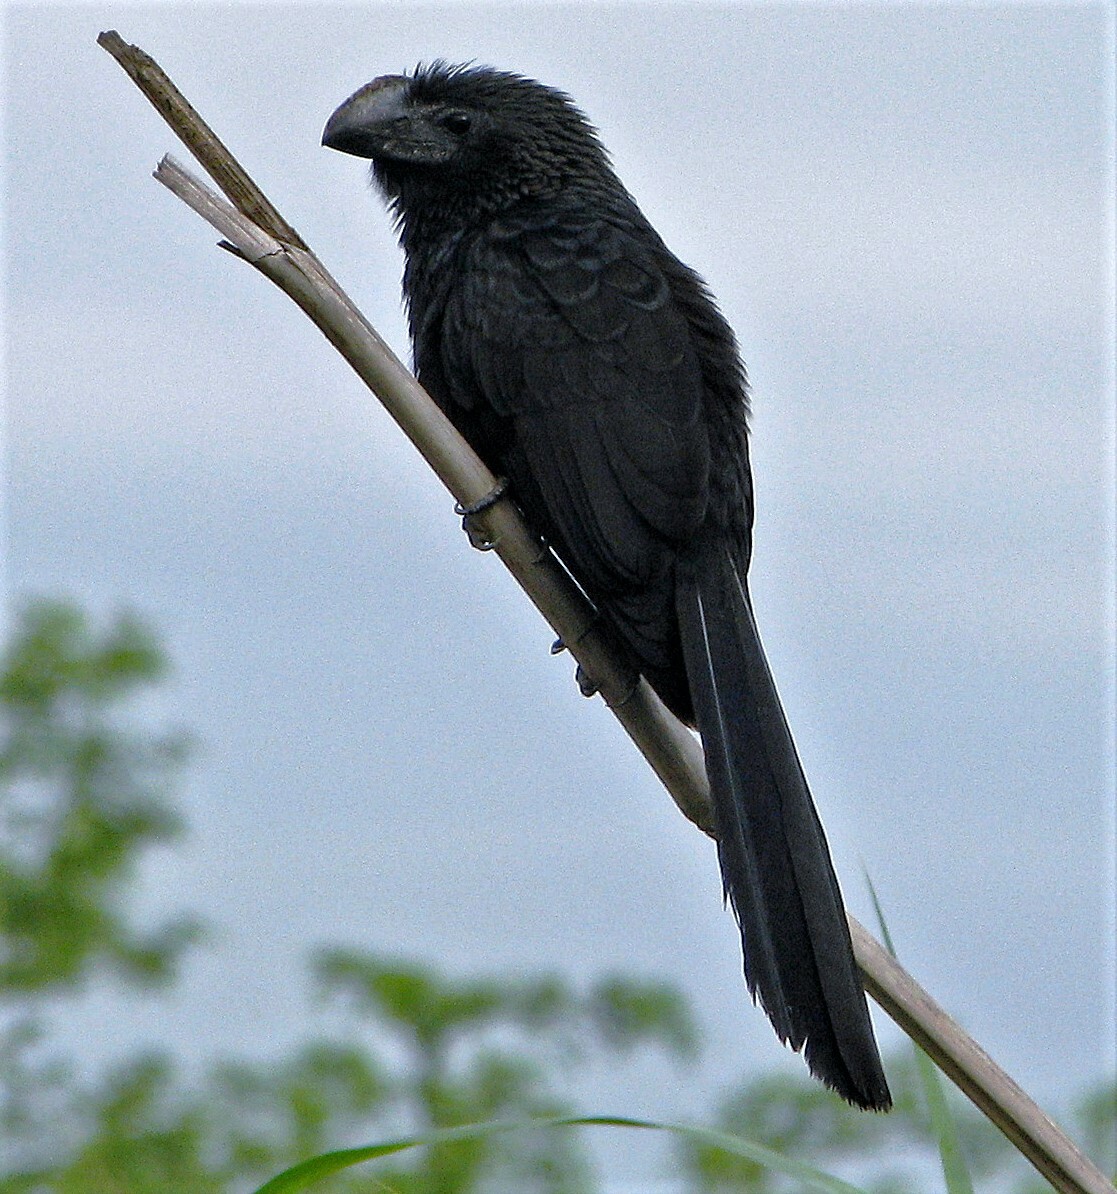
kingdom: Animalia
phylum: Chordata
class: Aves
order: Cuculiformes
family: Cuculidae
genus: Crotophaga
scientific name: Crotophaga ani
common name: Smooth-billed ani
